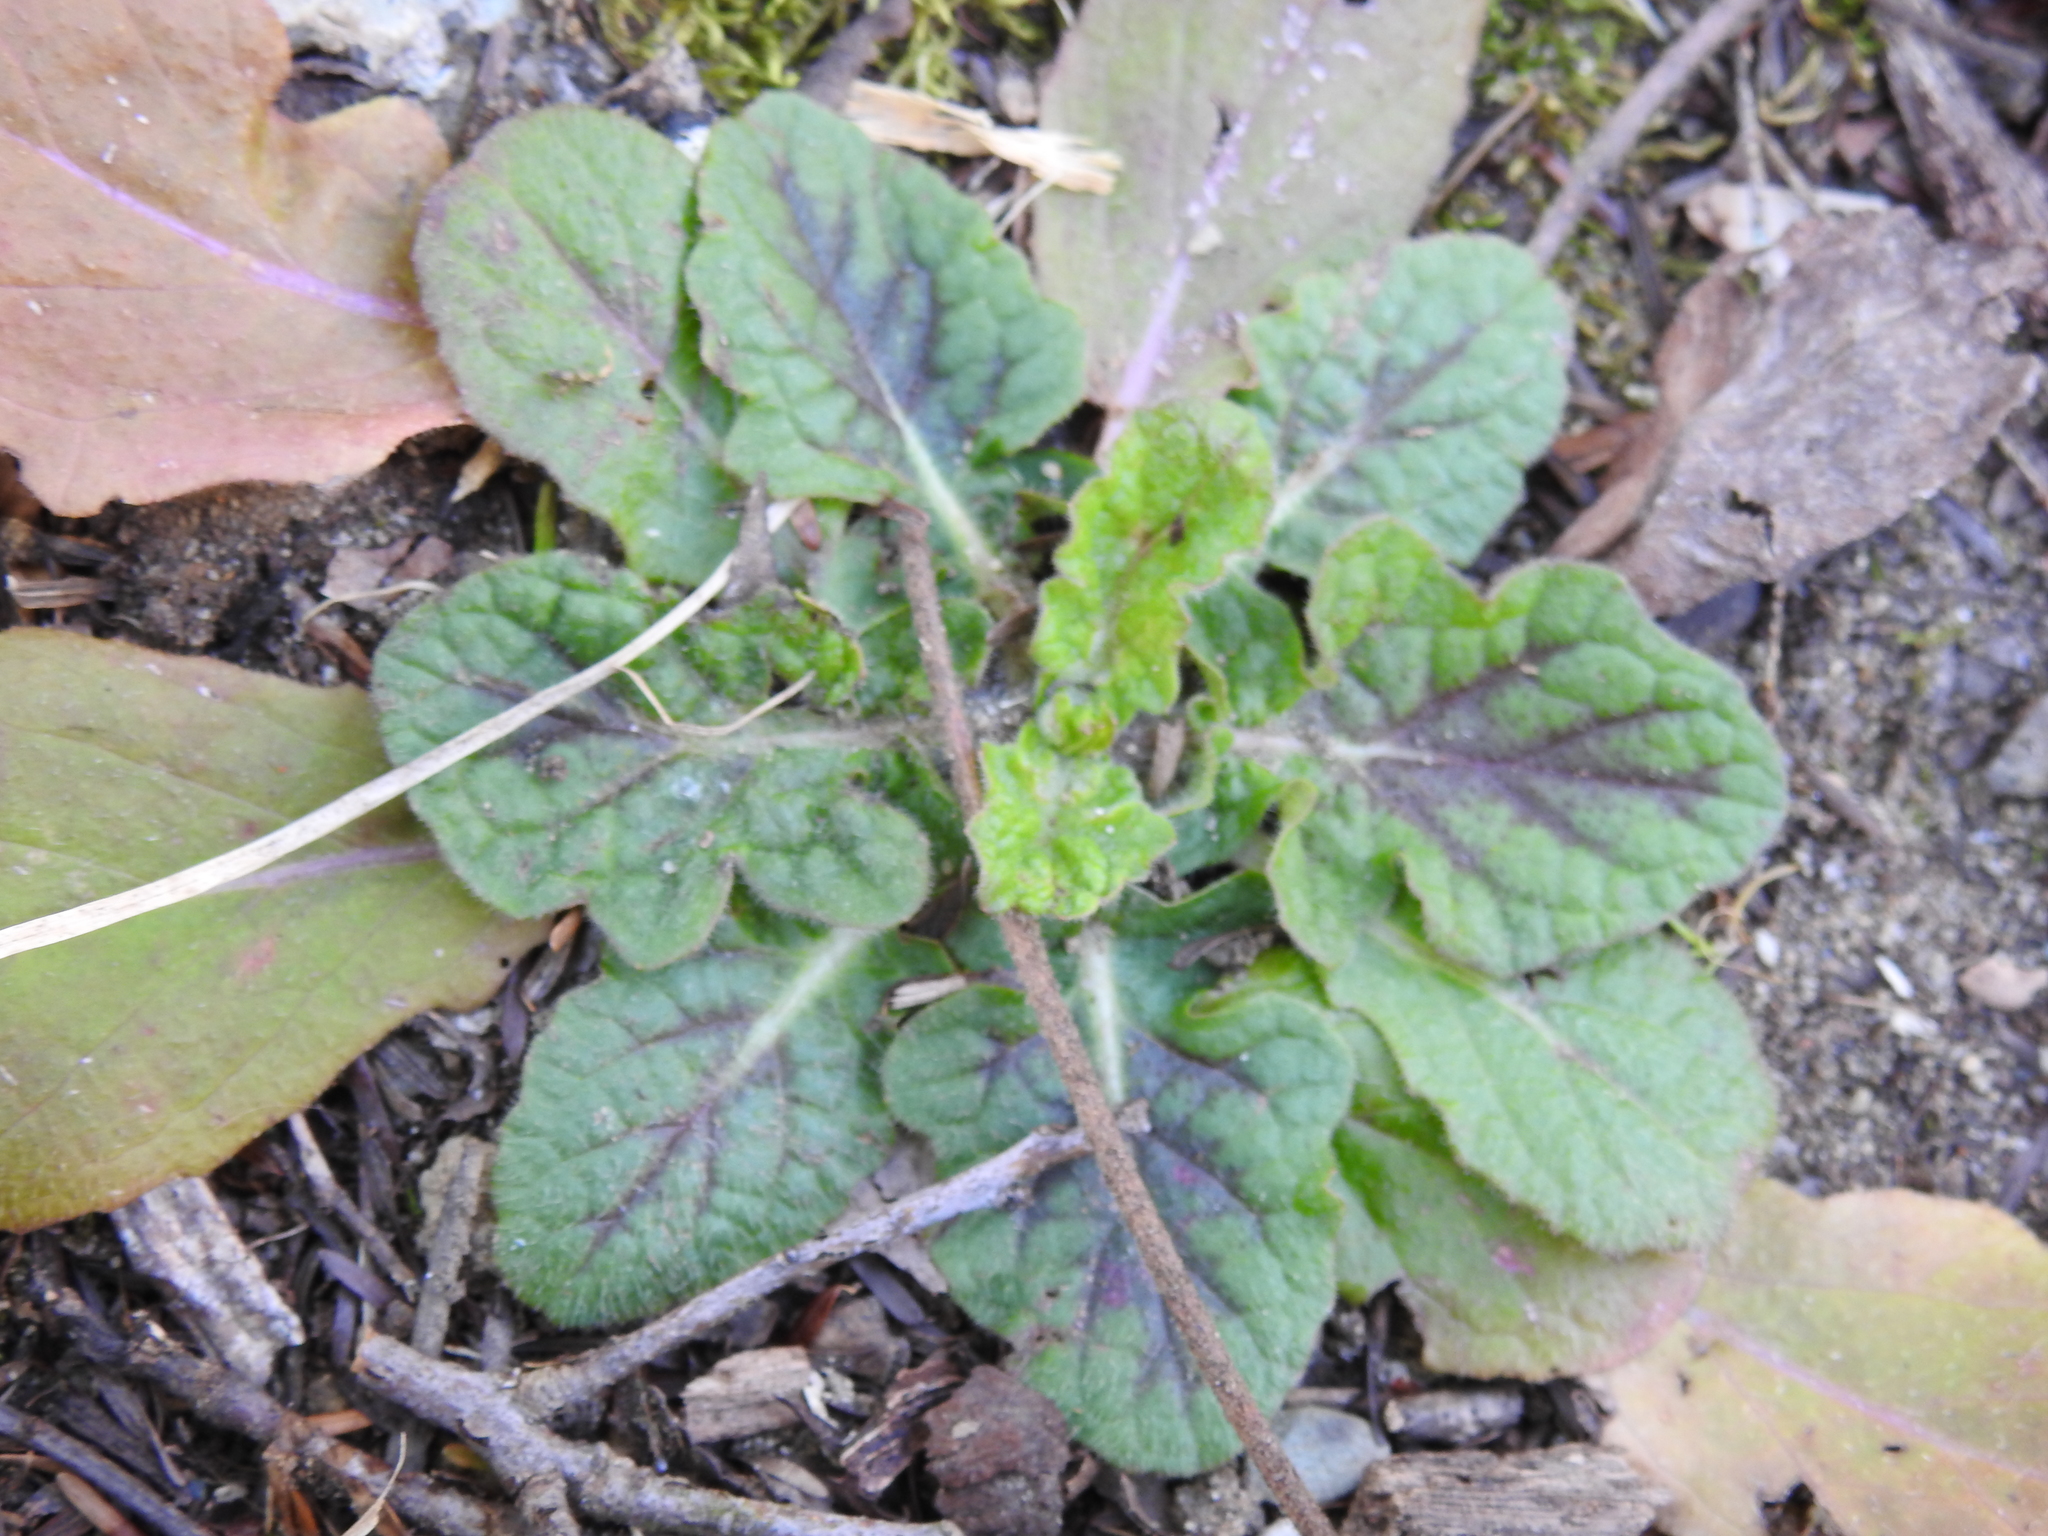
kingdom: Plantae
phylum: Tracheophyta
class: Magnoliopsida
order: Lamiales
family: Lamiaceae
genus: Salvia
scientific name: Salvia lyrata
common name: Cancerweed
